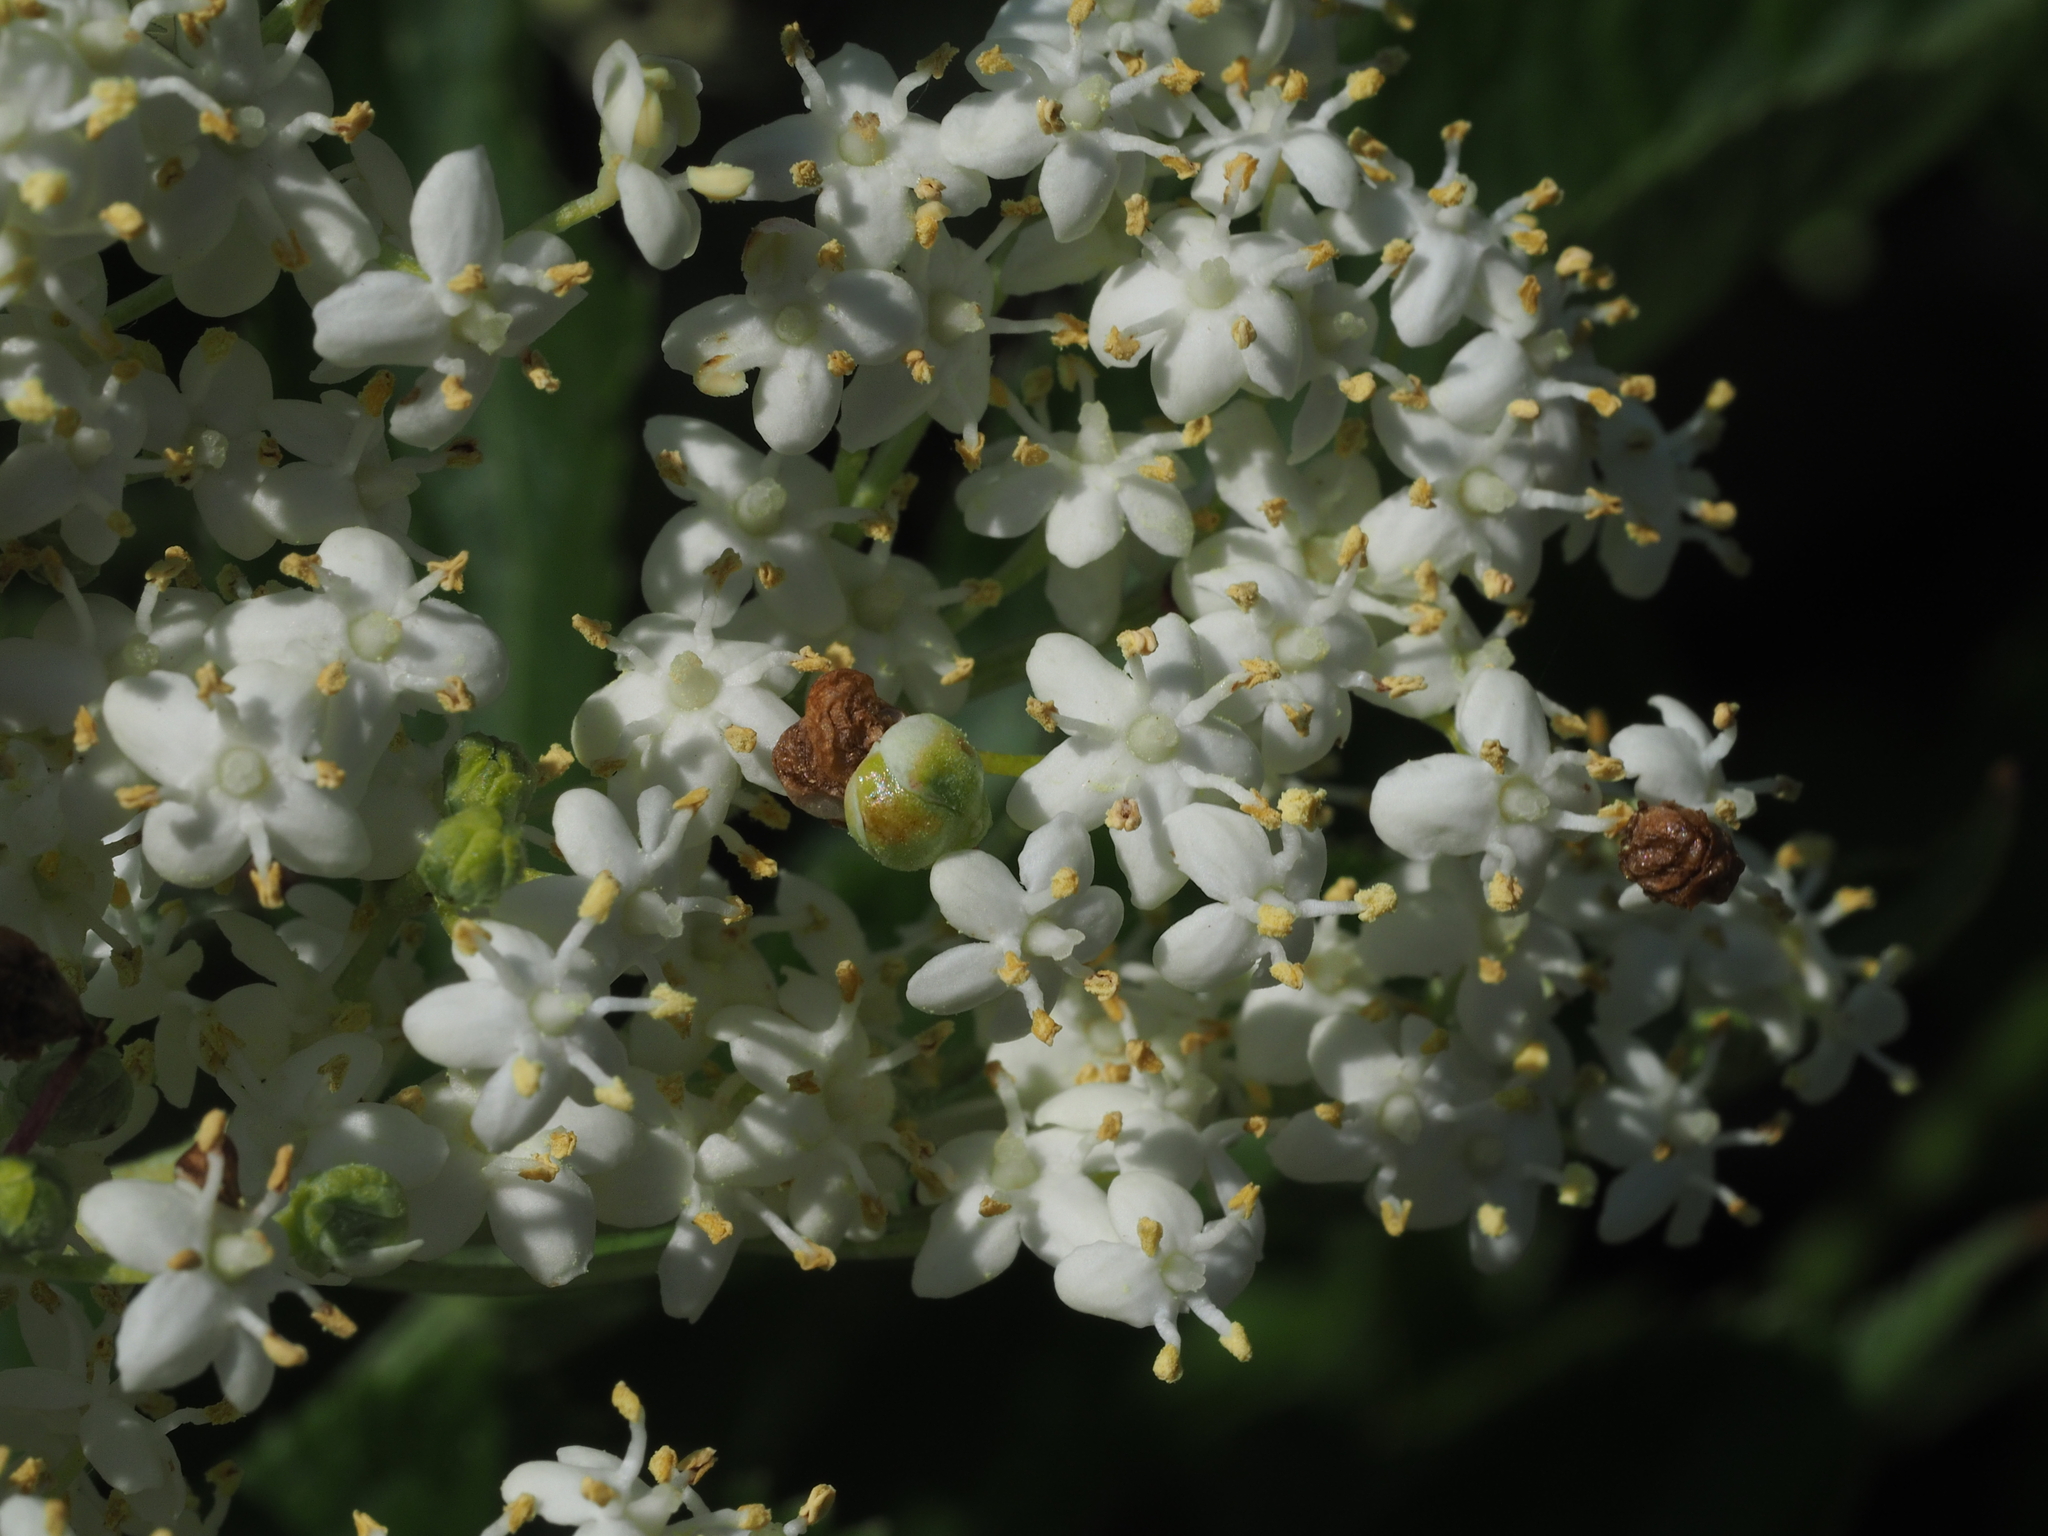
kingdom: Animalia
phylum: Arthropoda
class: Insecta
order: Diptera
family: Cecidomyiidae
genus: Placochela
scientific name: Placochela nigripes
